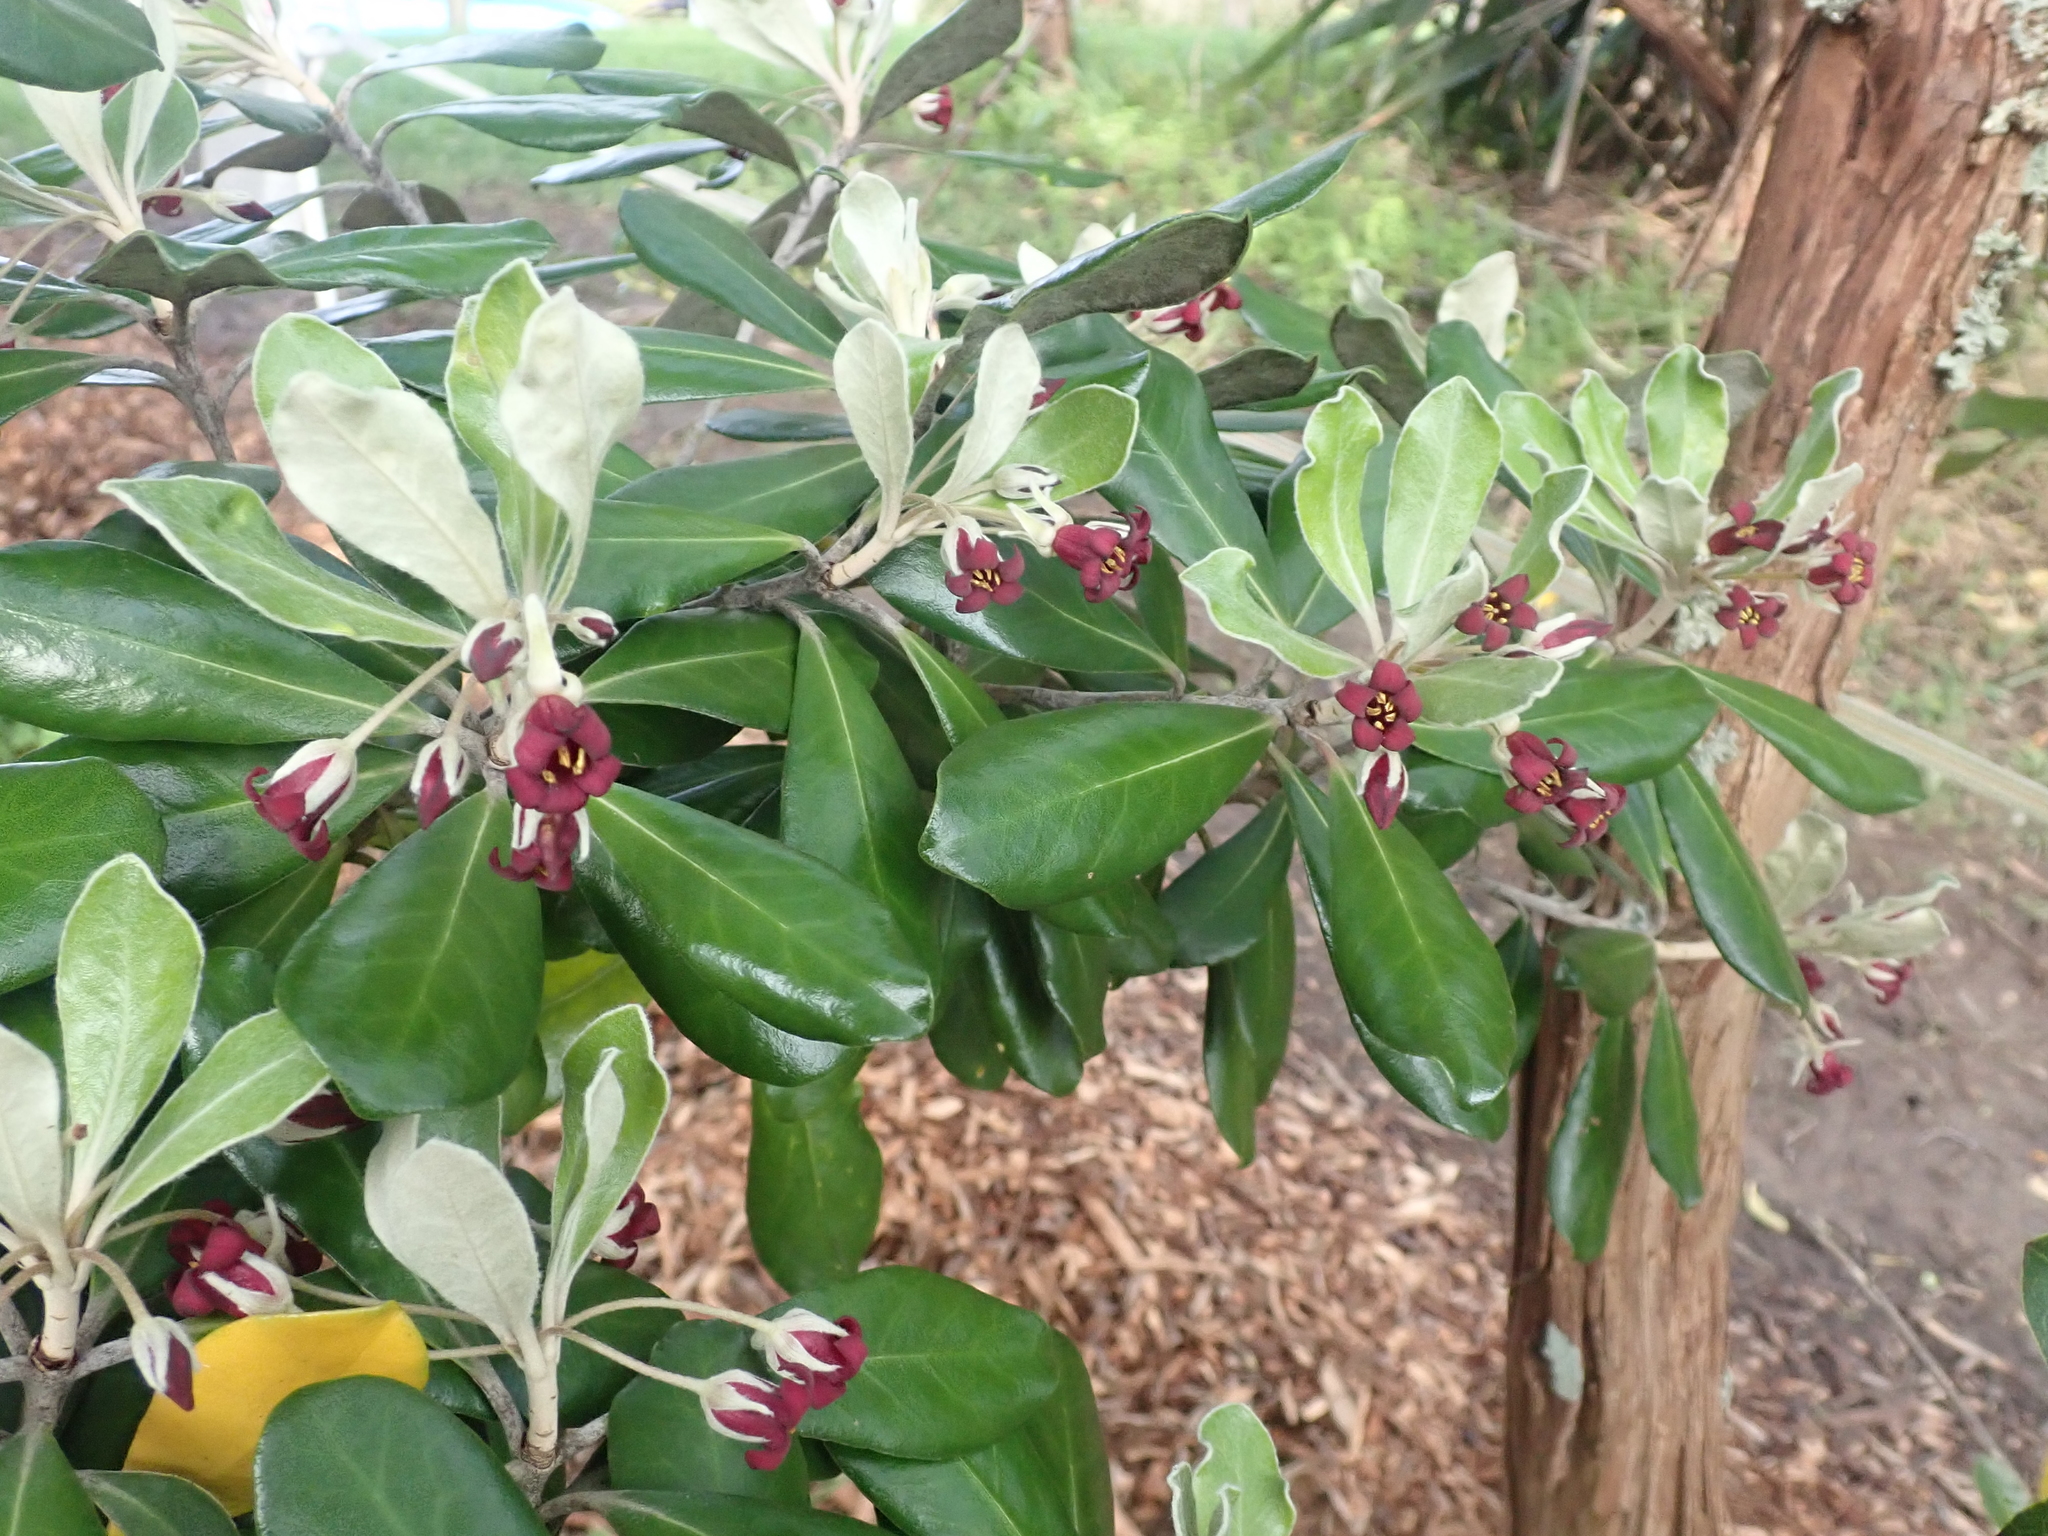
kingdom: Plantae
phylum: Tracheophyta
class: Magnoliopsida
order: Apiales
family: Pittosporaceae
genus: Pittosporum
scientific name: Pittosporum crassifolium
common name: Karo
